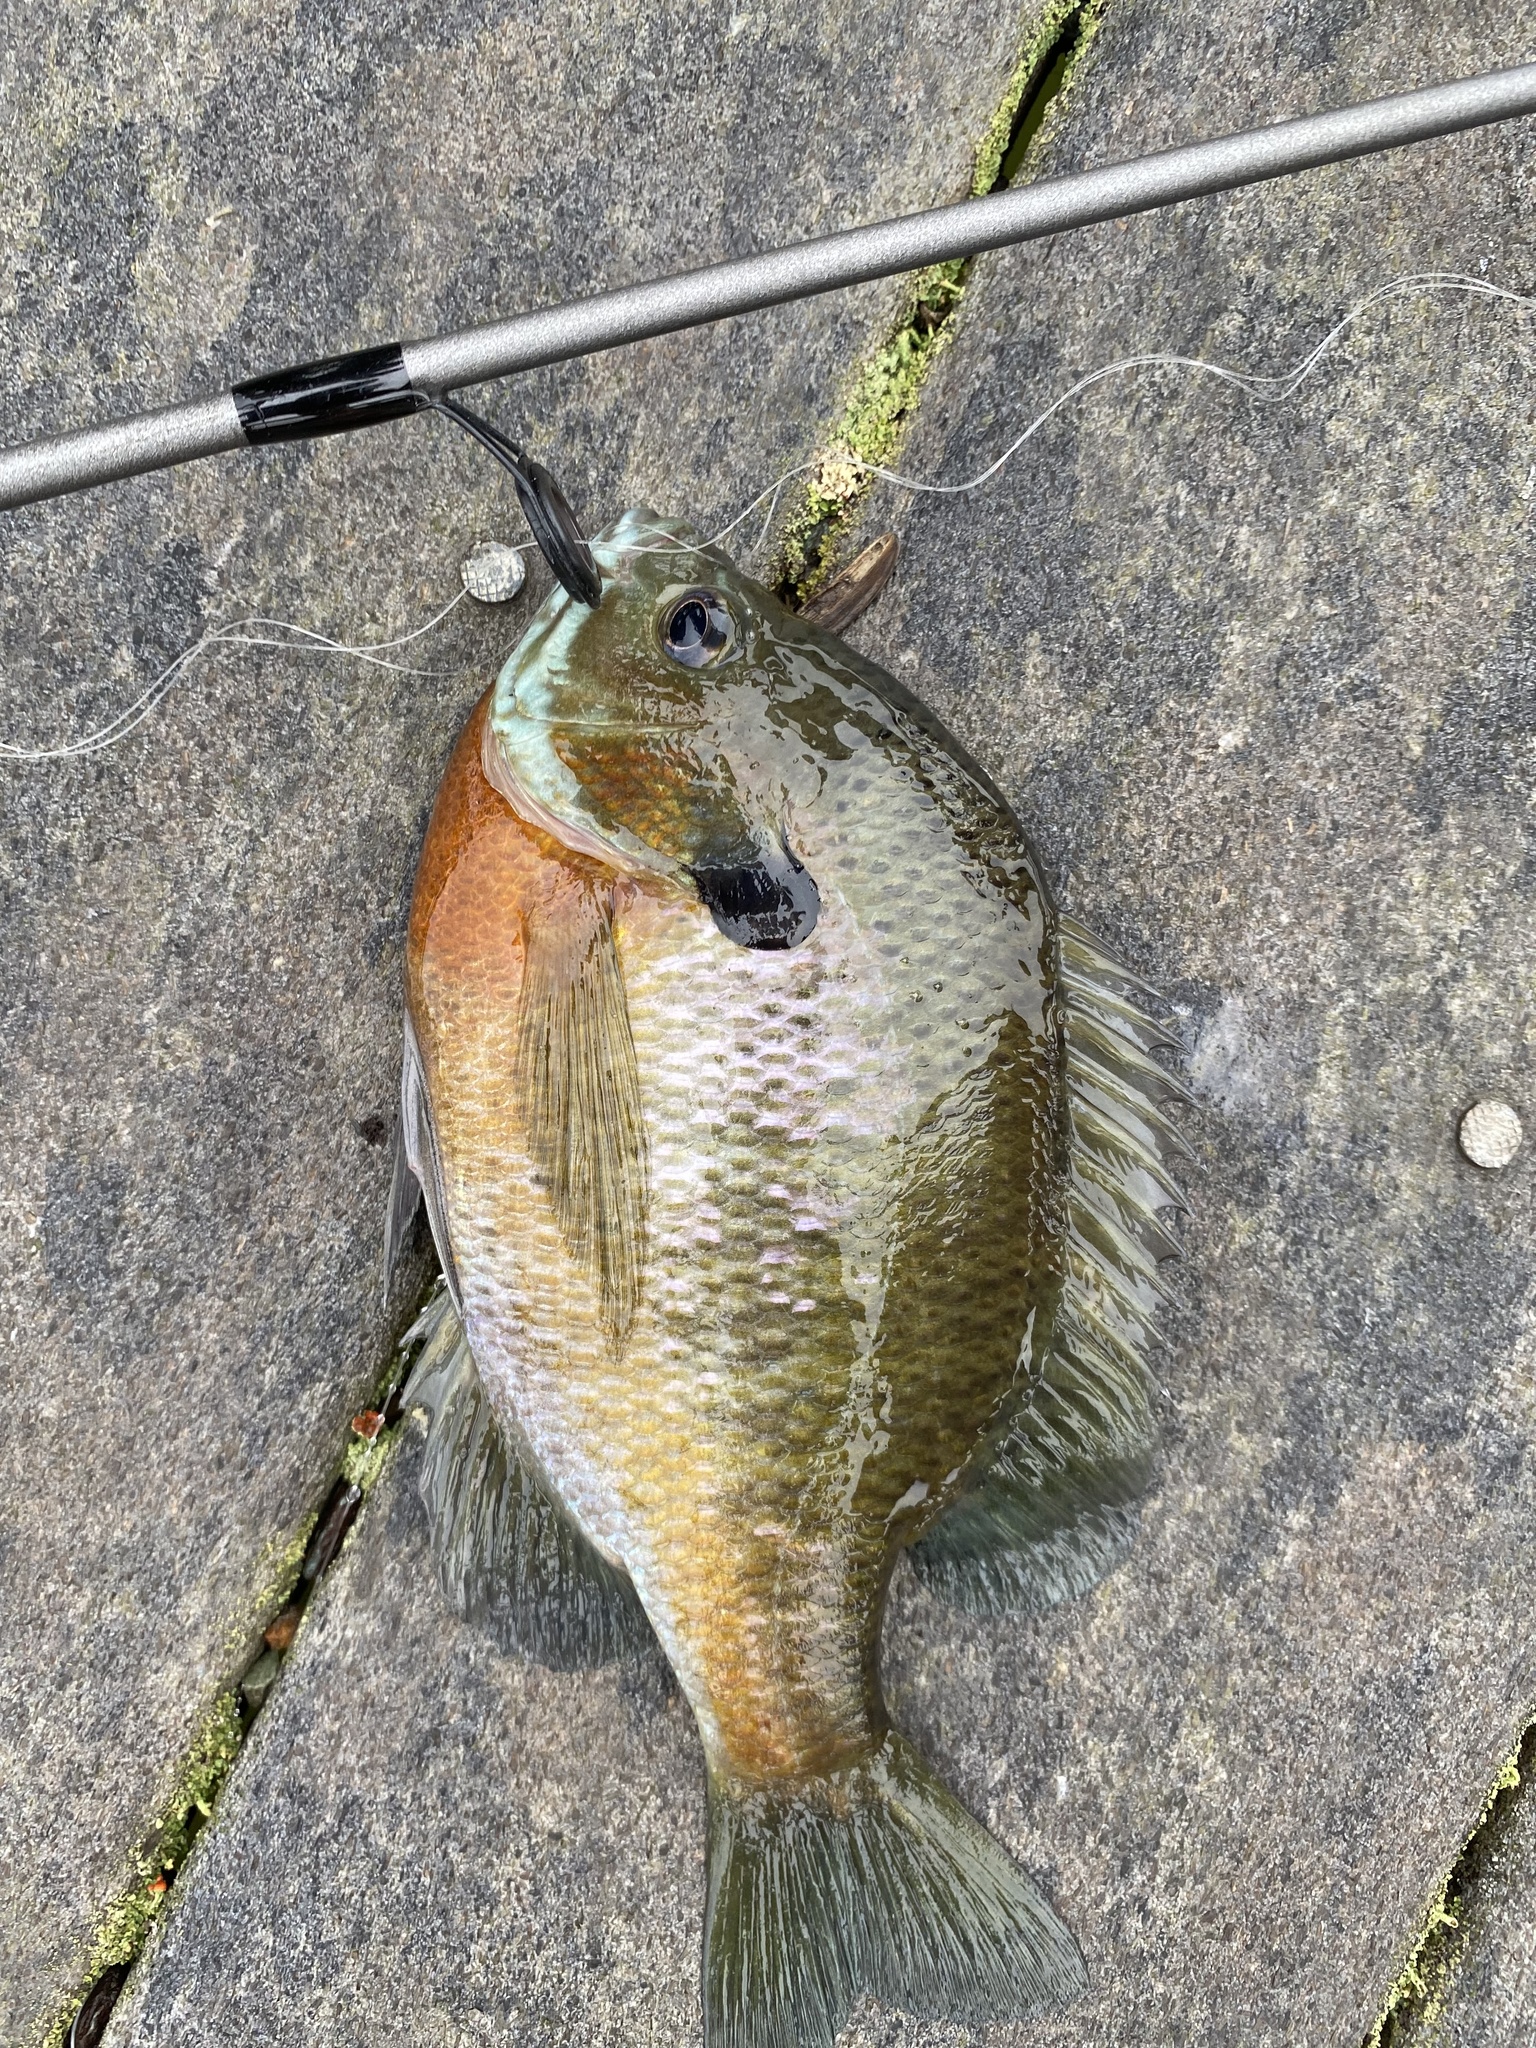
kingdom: Animalia
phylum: Chordata
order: Perciformes
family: Centrarchidae
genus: Lepomis
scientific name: Lepomis macrochirus
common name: Bluegill
